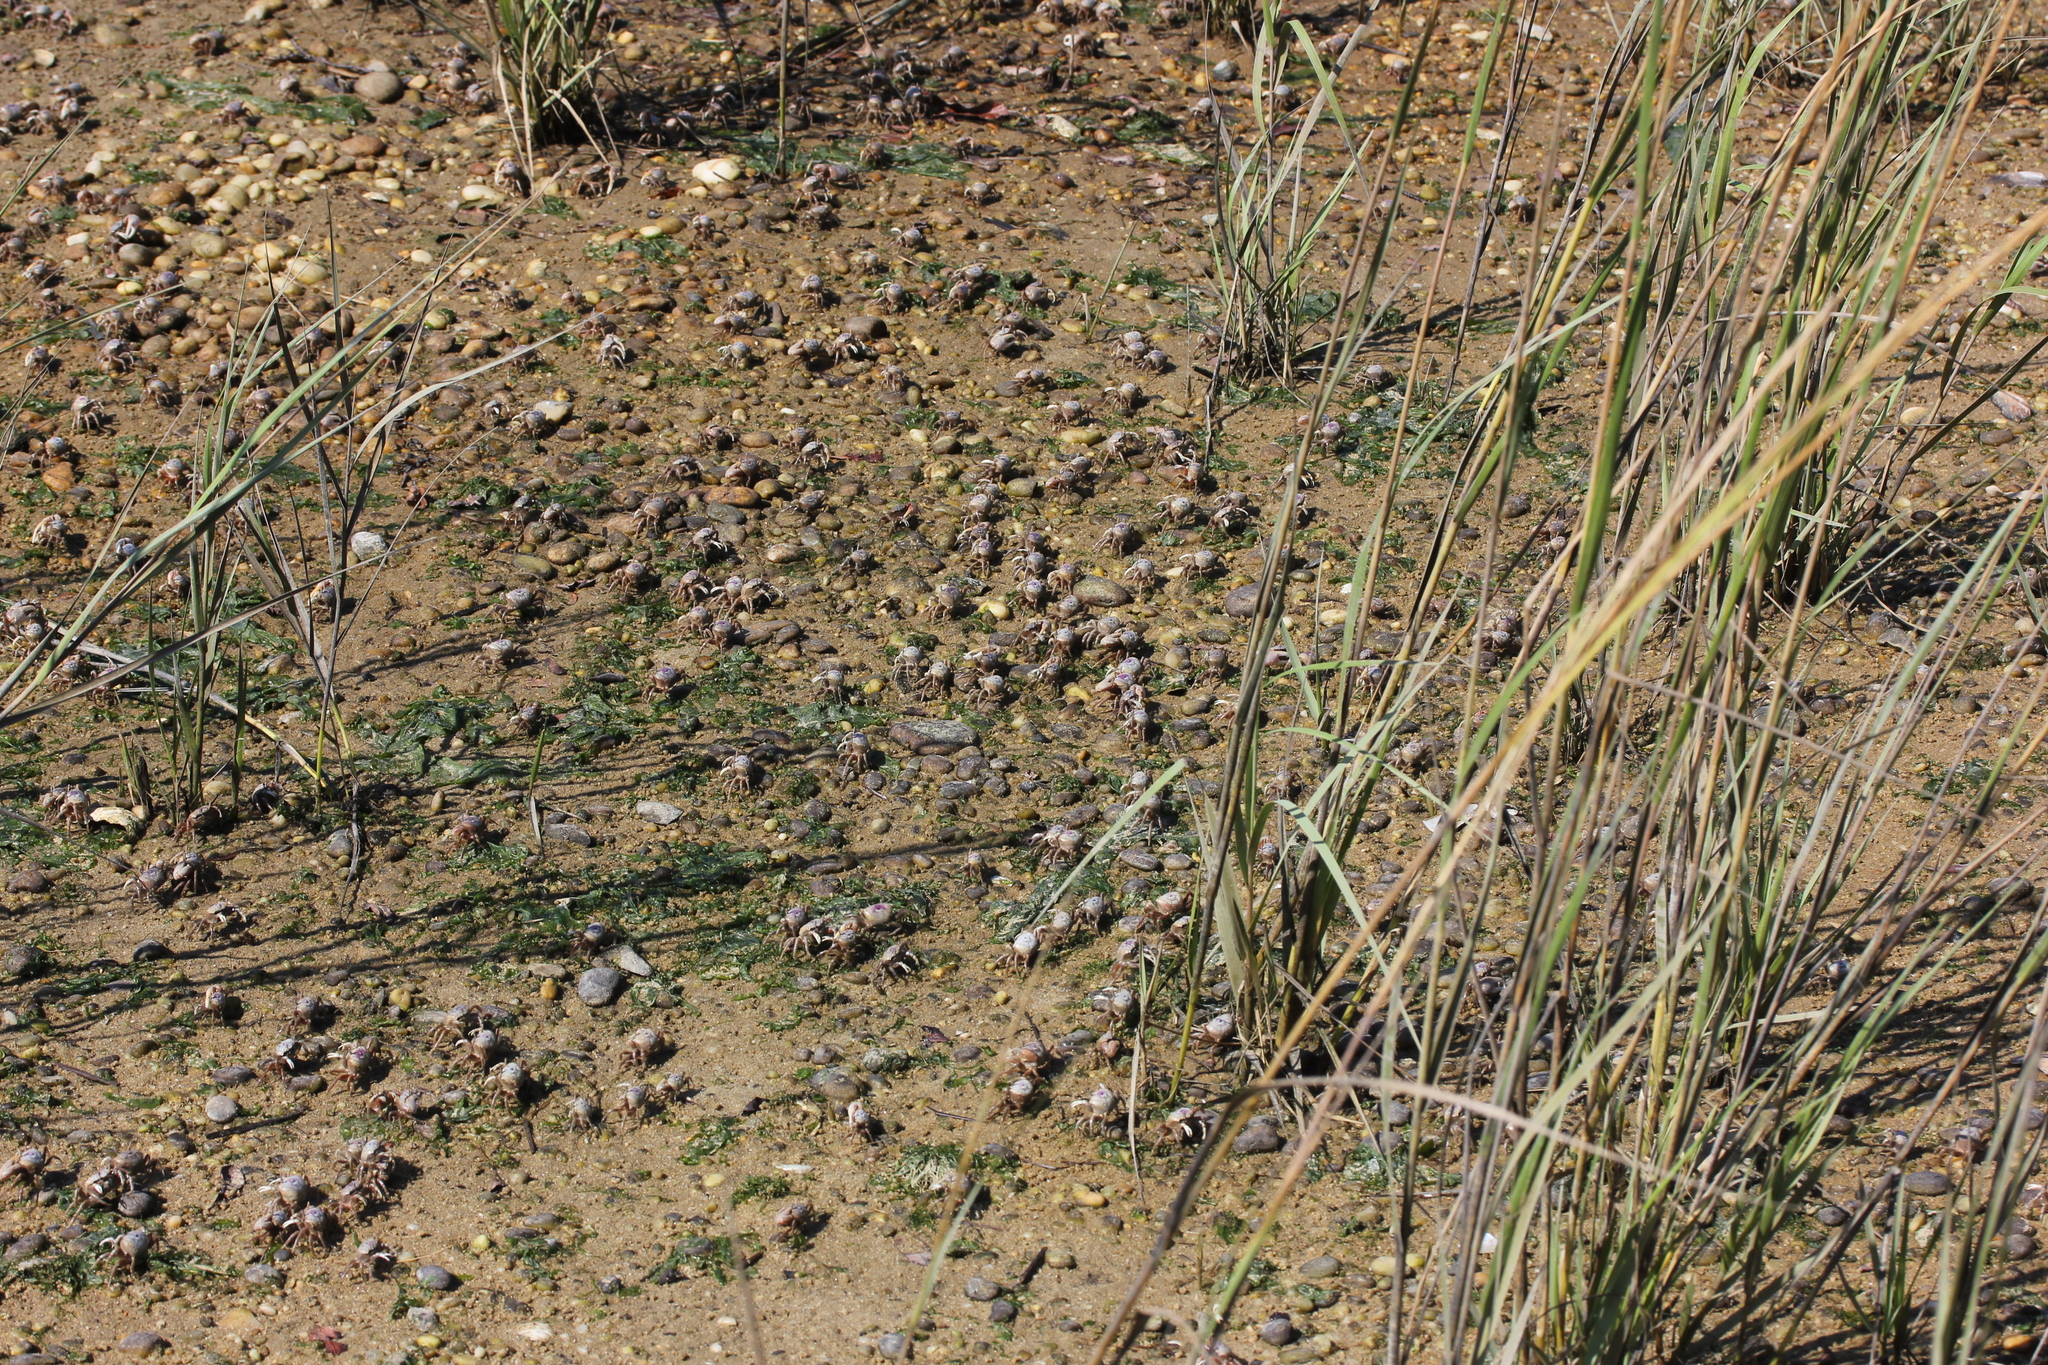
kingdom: Animalia
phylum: Arthropoda
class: Malacostraca
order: Decapoda
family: Ocypodidae
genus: Leptuca
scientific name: Leptuca pugilator
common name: Atlantic sand fiddler crab
